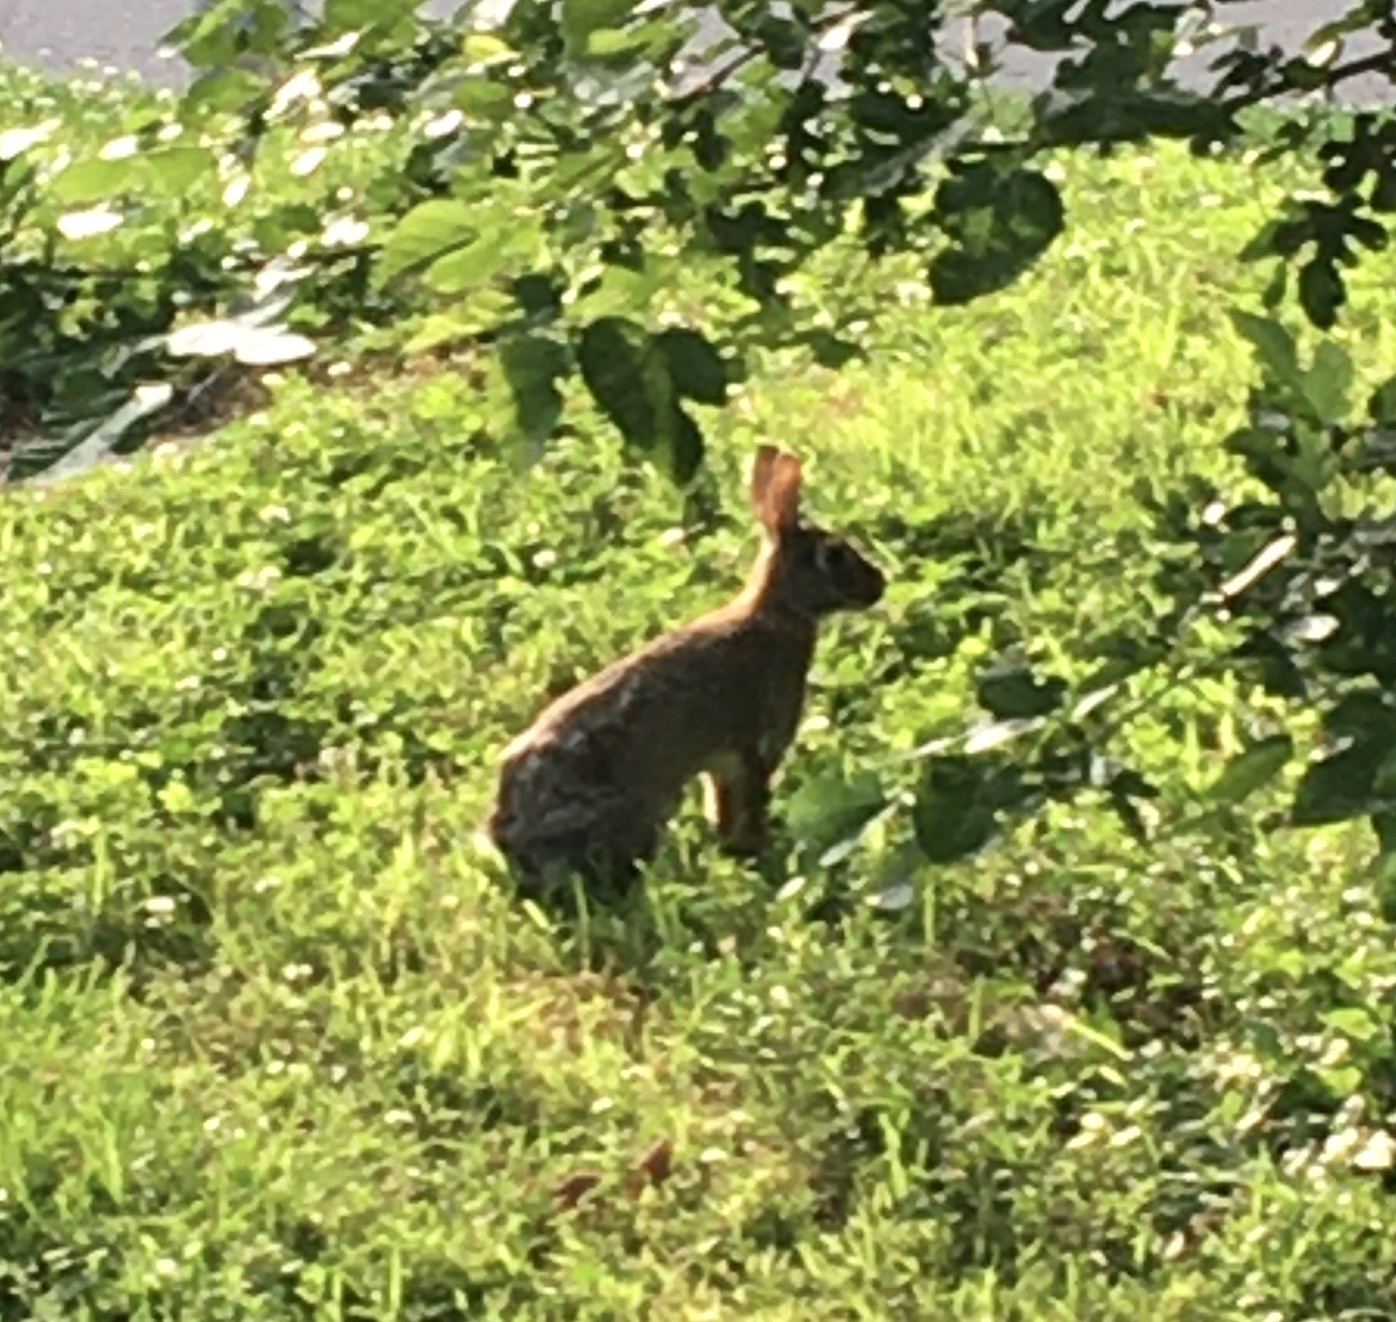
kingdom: Animalia
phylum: Chordata
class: Mammalia
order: Lagomorpha
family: Leporidae
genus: Sylvilagus
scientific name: Sylvilagus floridanus
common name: Eastern cottontail
